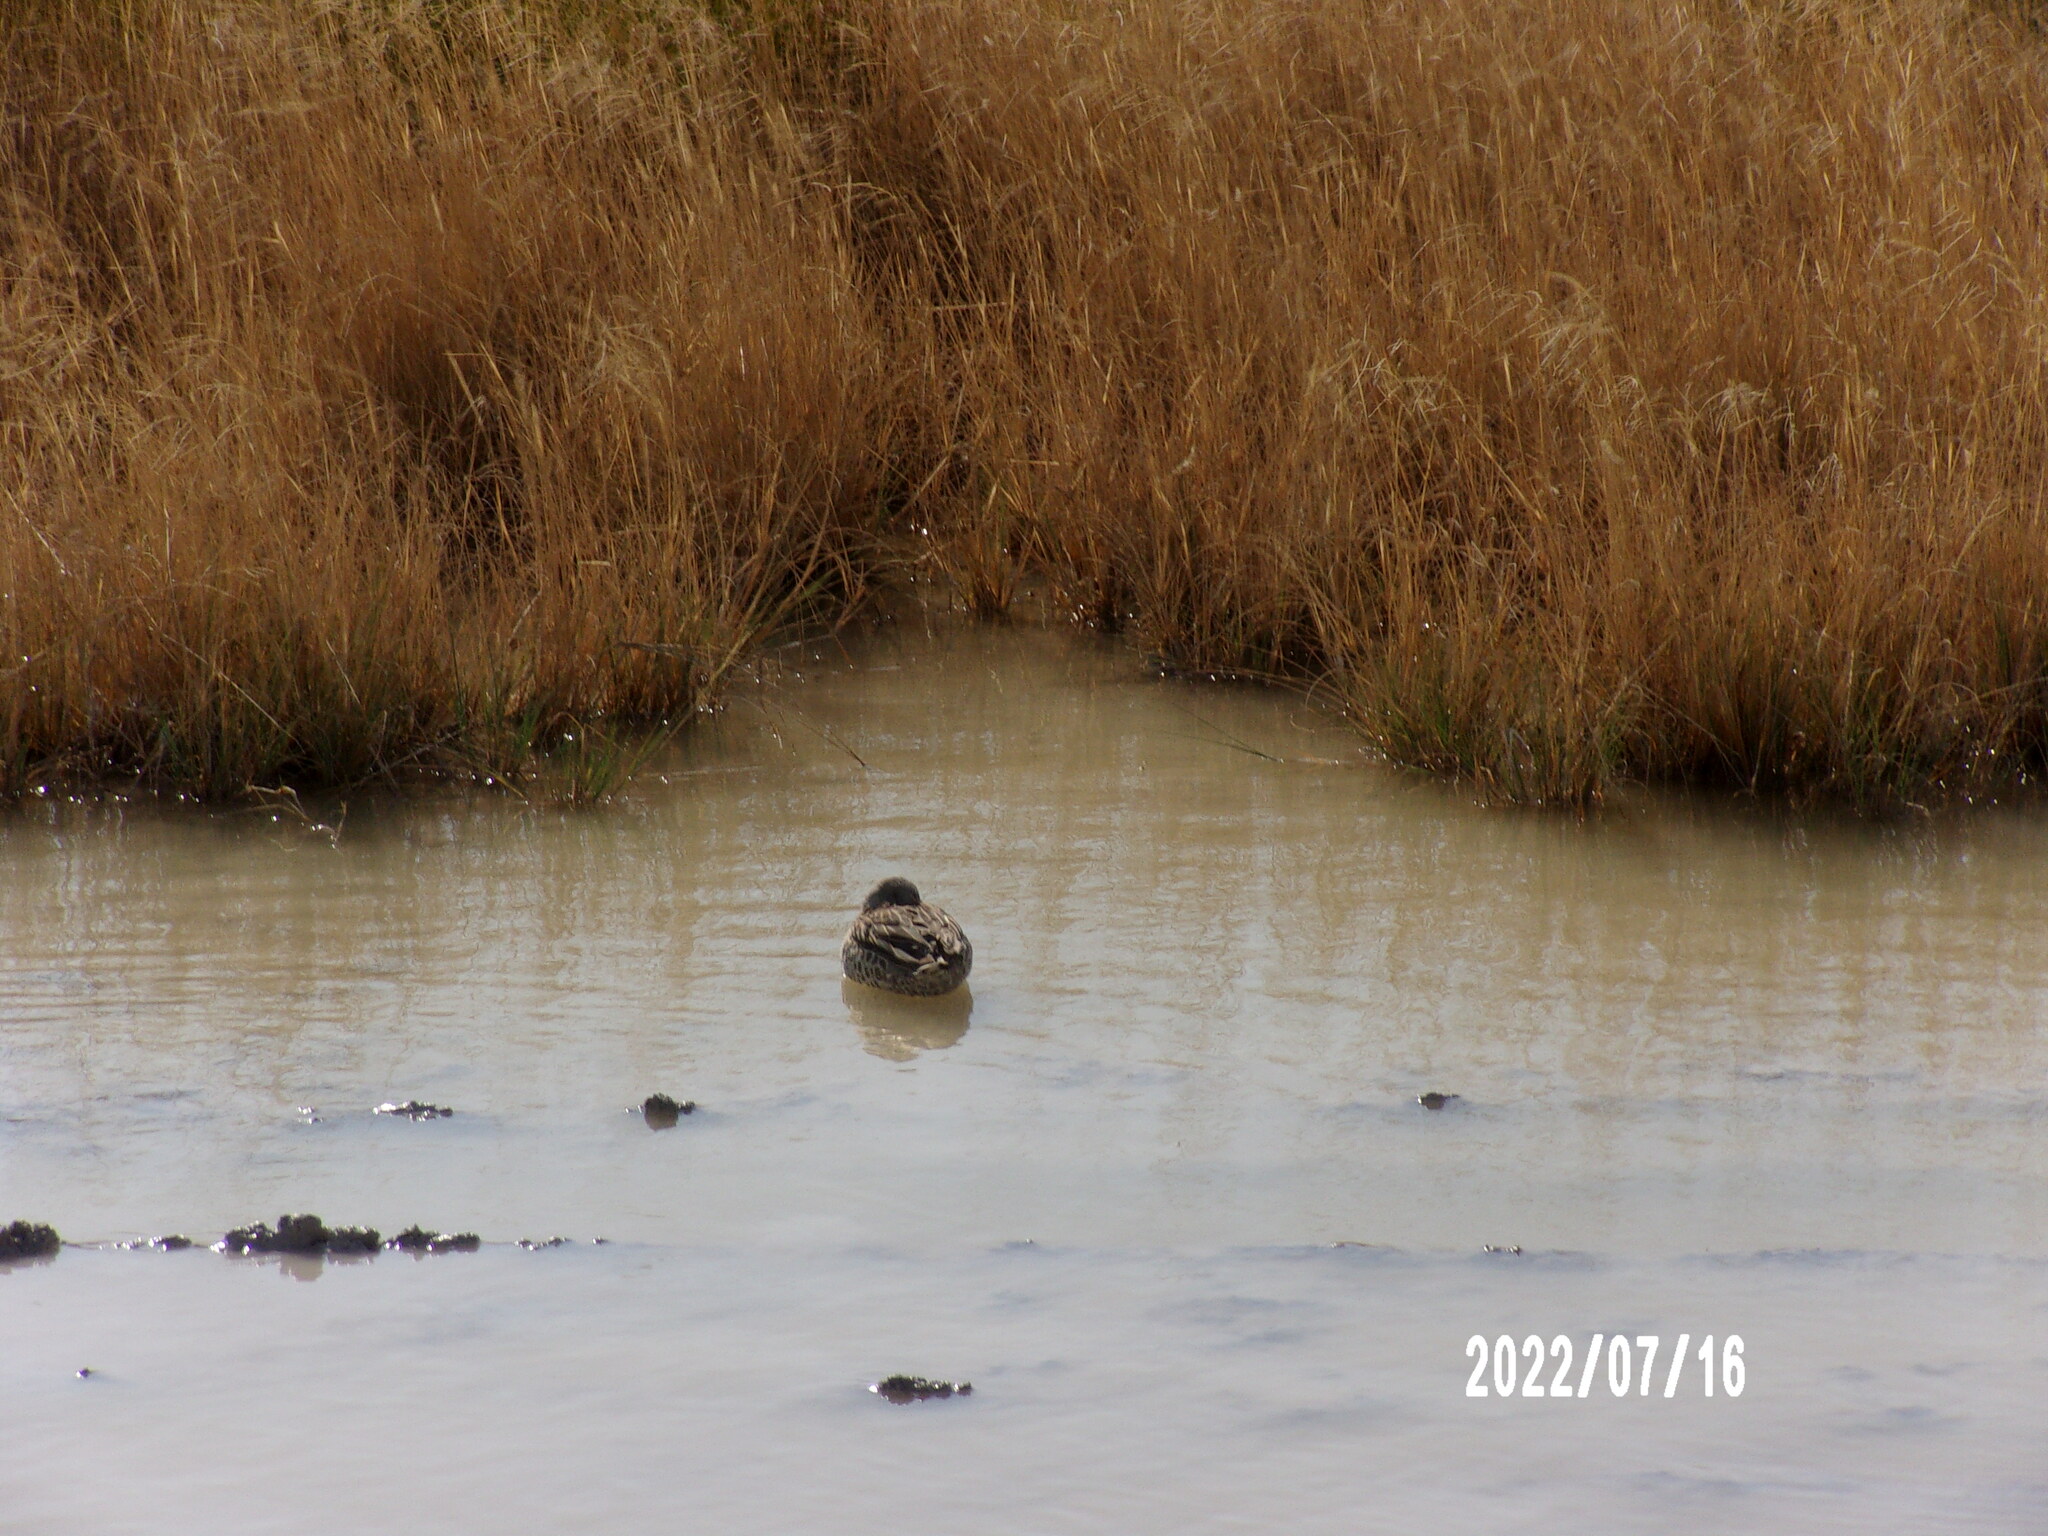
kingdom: Animalia
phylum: Chordata
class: Aves
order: Anseriformes
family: Anatidae
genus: Anas
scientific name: Anas capensis
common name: Cape teal
